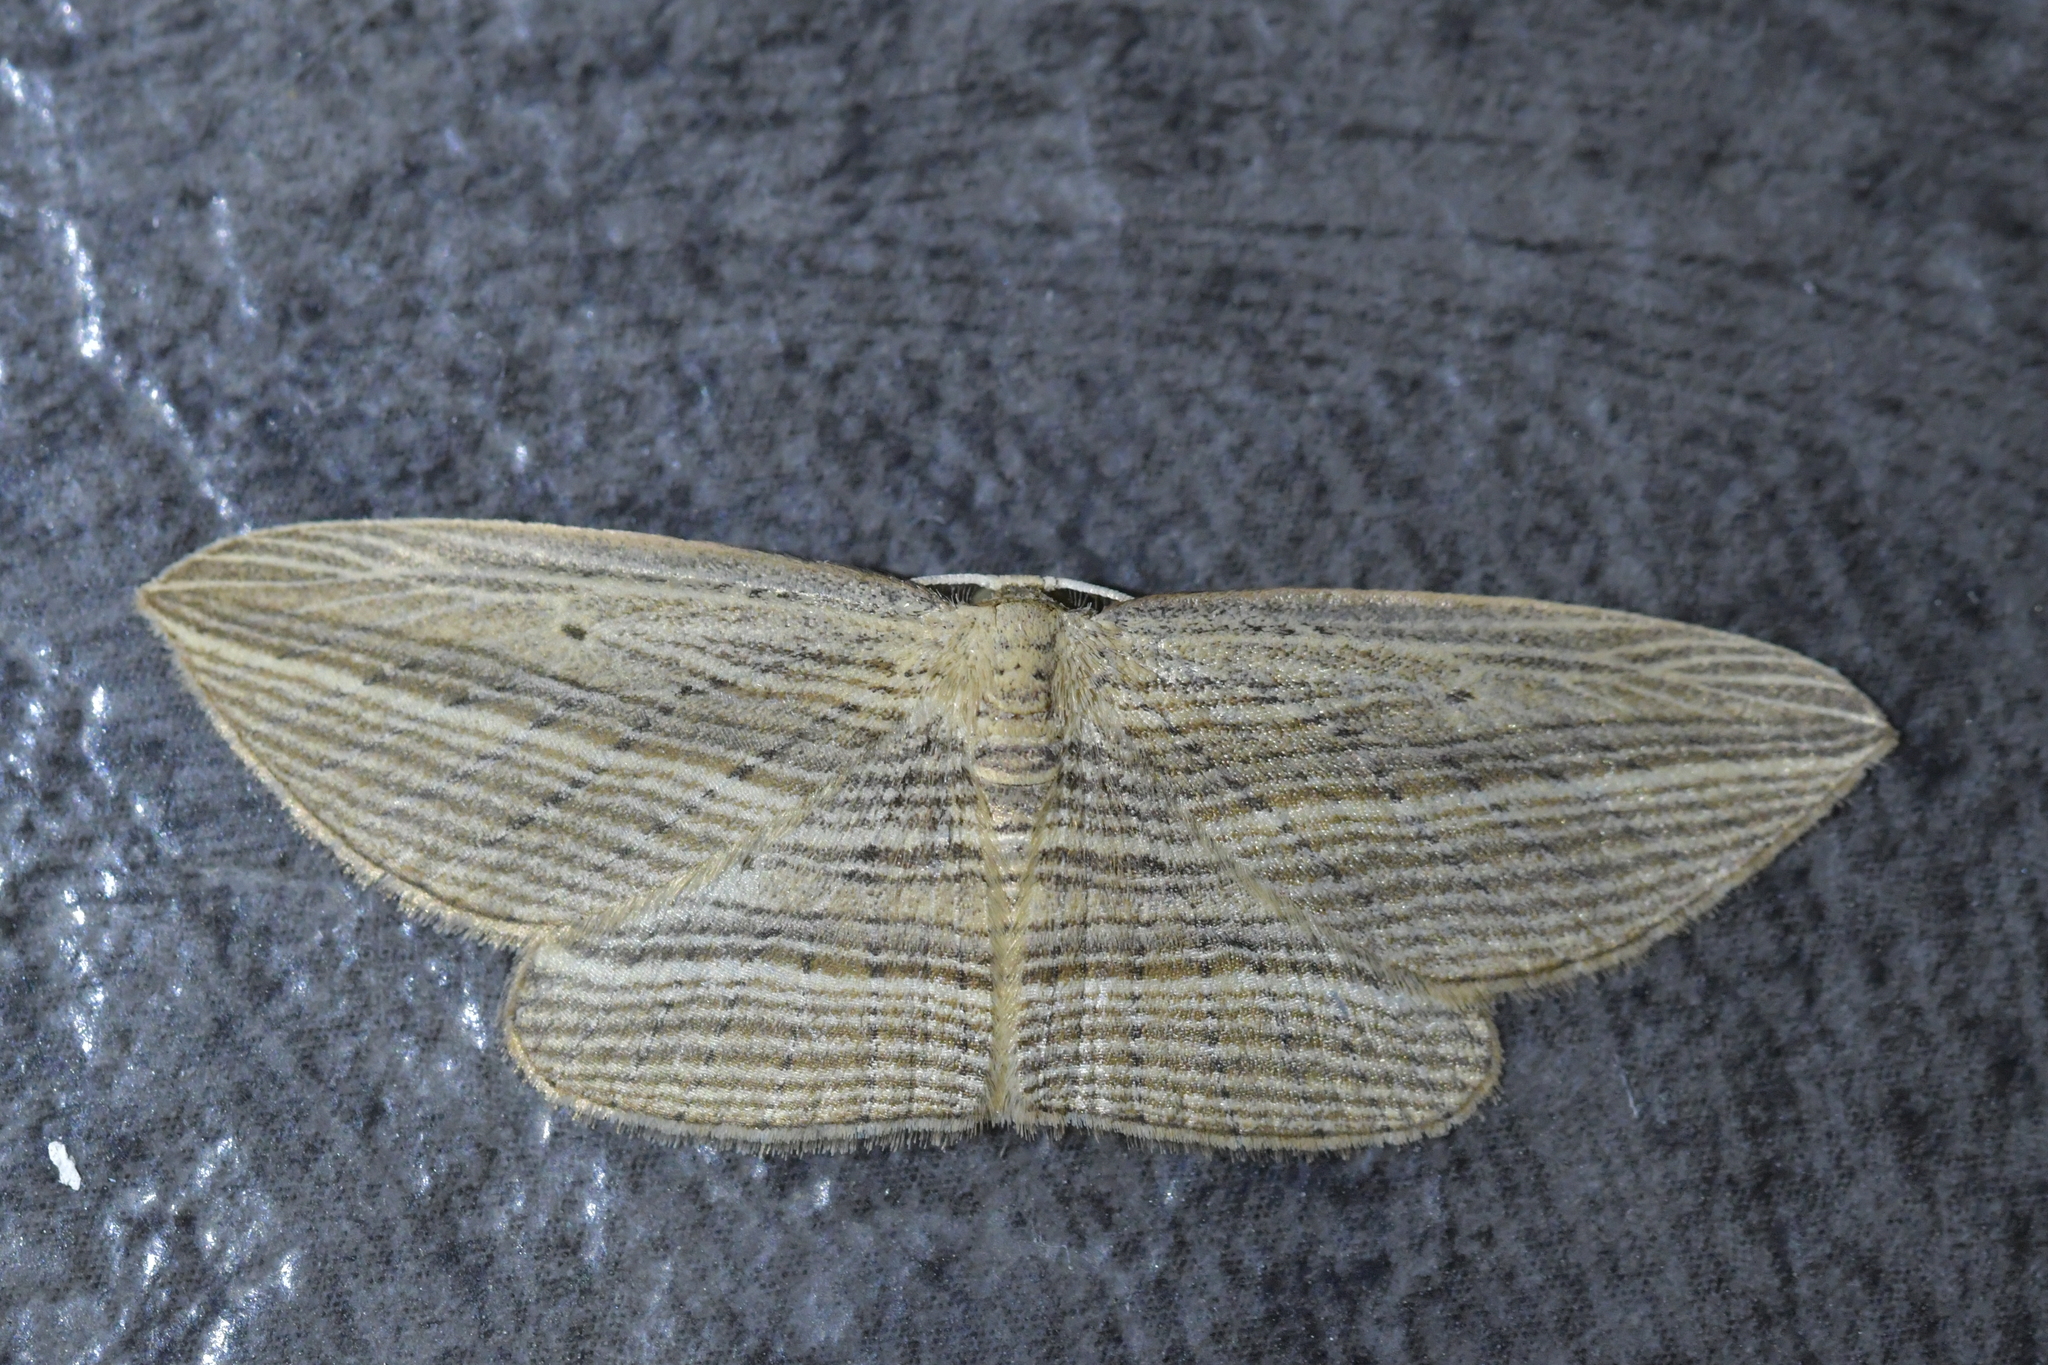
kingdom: Animalia
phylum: Arthropoda
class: Insecta
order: Lepidoptera
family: Geometridae
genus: Epiphryne
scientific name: Epiphryne verriculata
